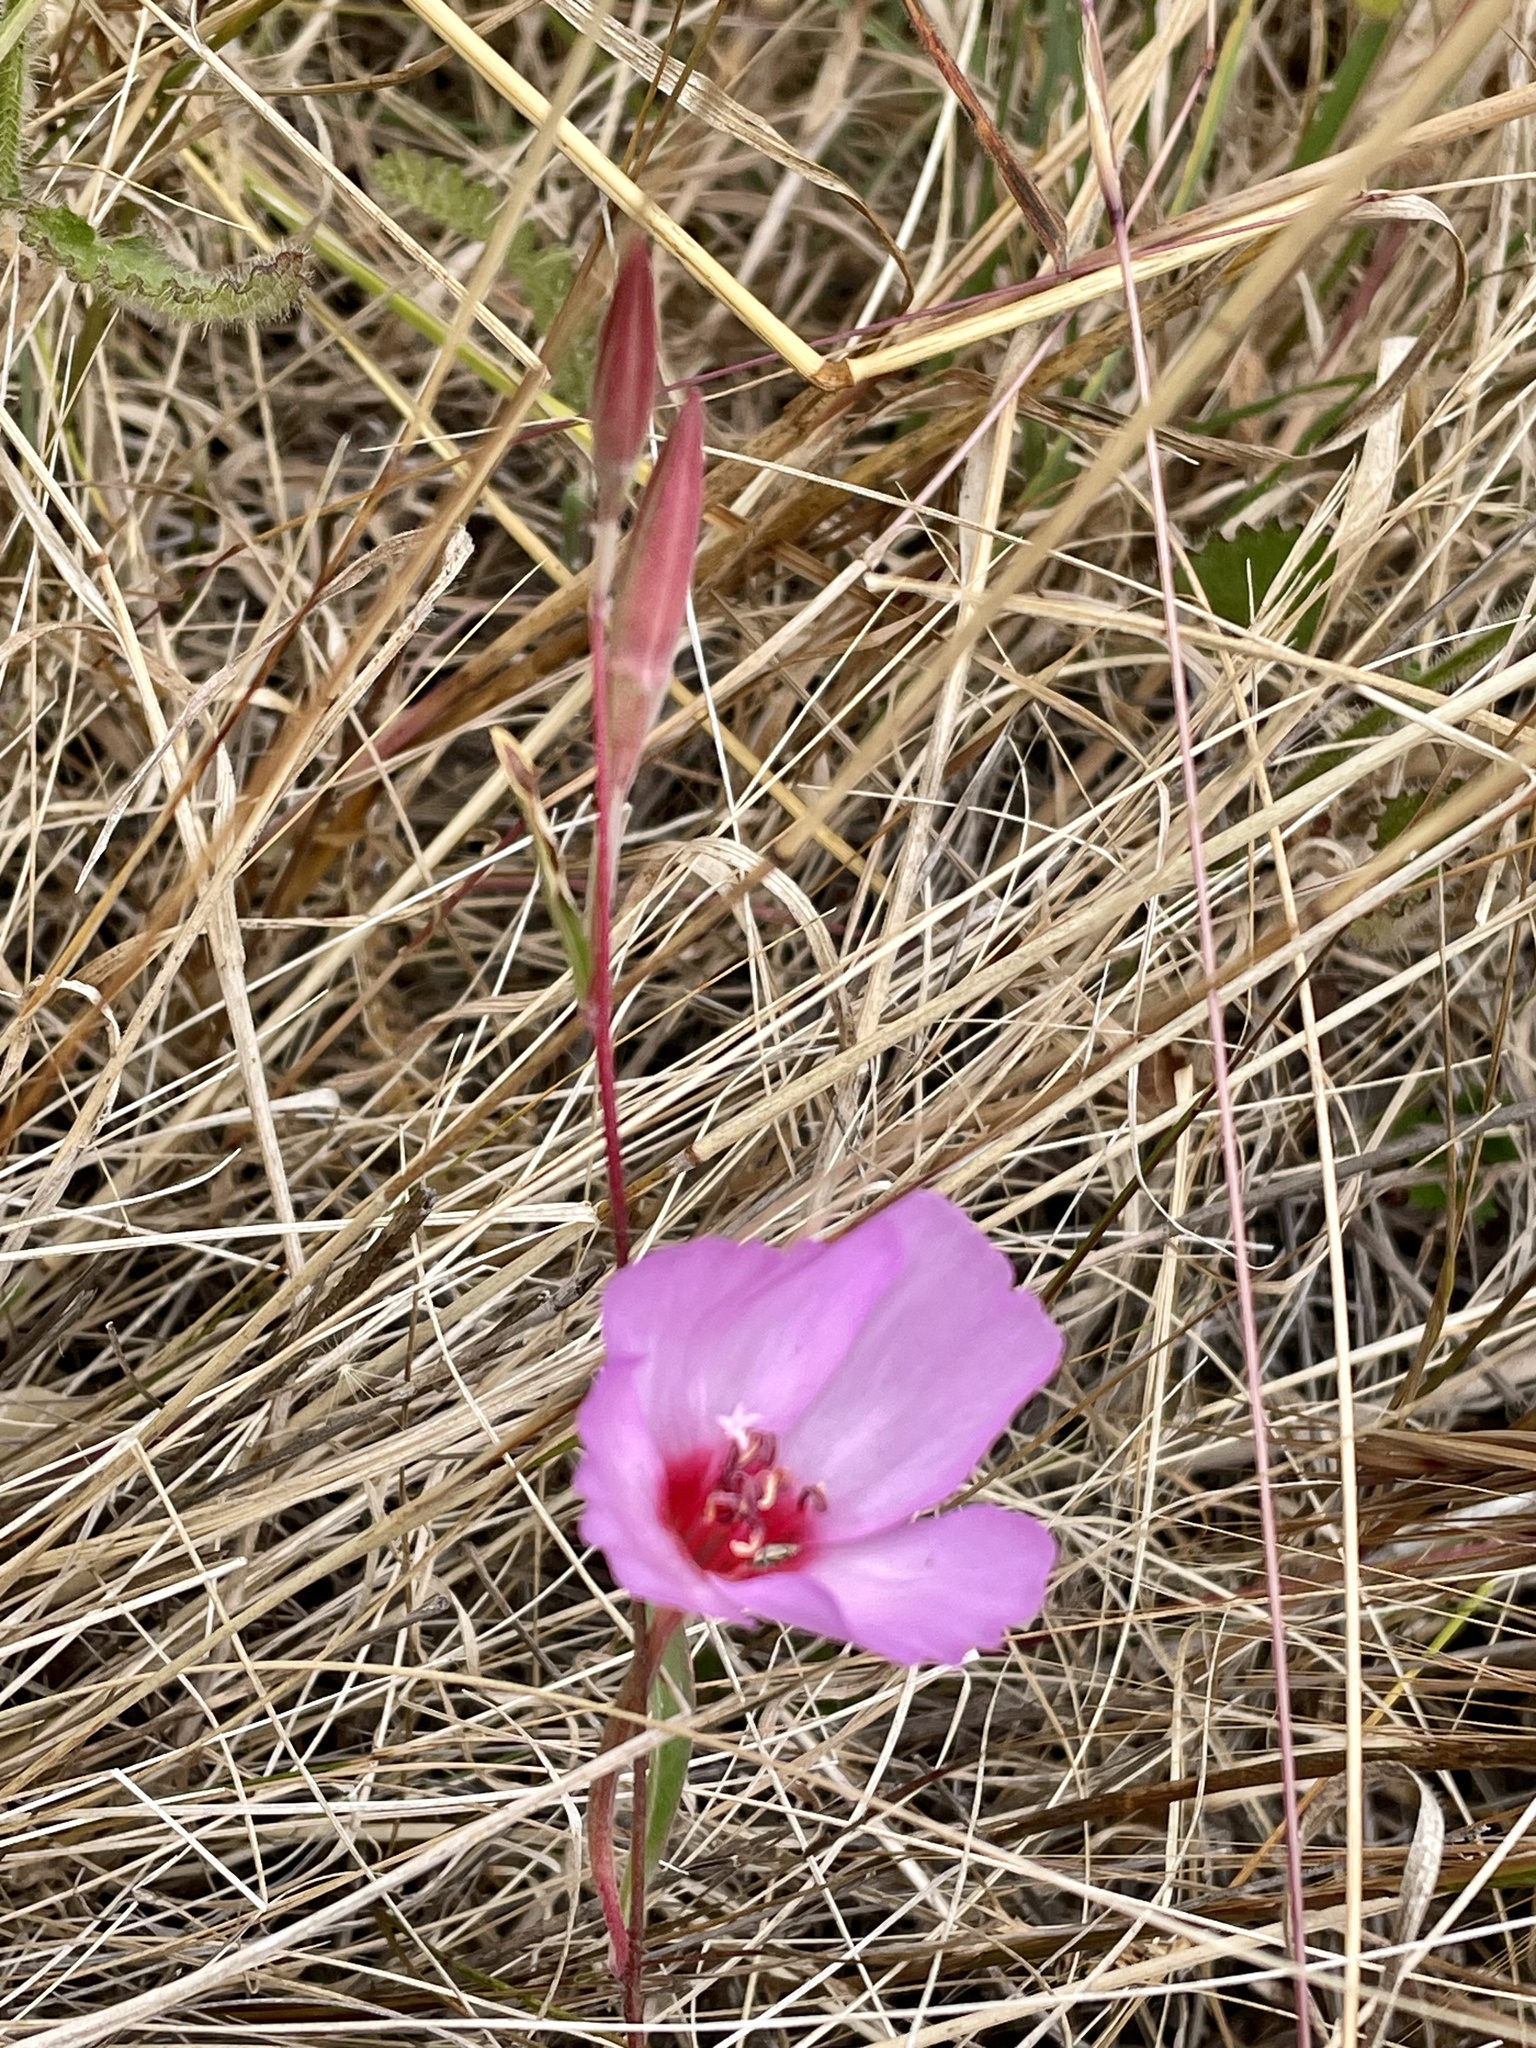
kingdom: Plantae
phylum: Tracheophyta
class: Magnoliopsida
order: Myrtales
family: Onagraceae
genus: Clarkia
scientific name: Clarkia rubicunda
